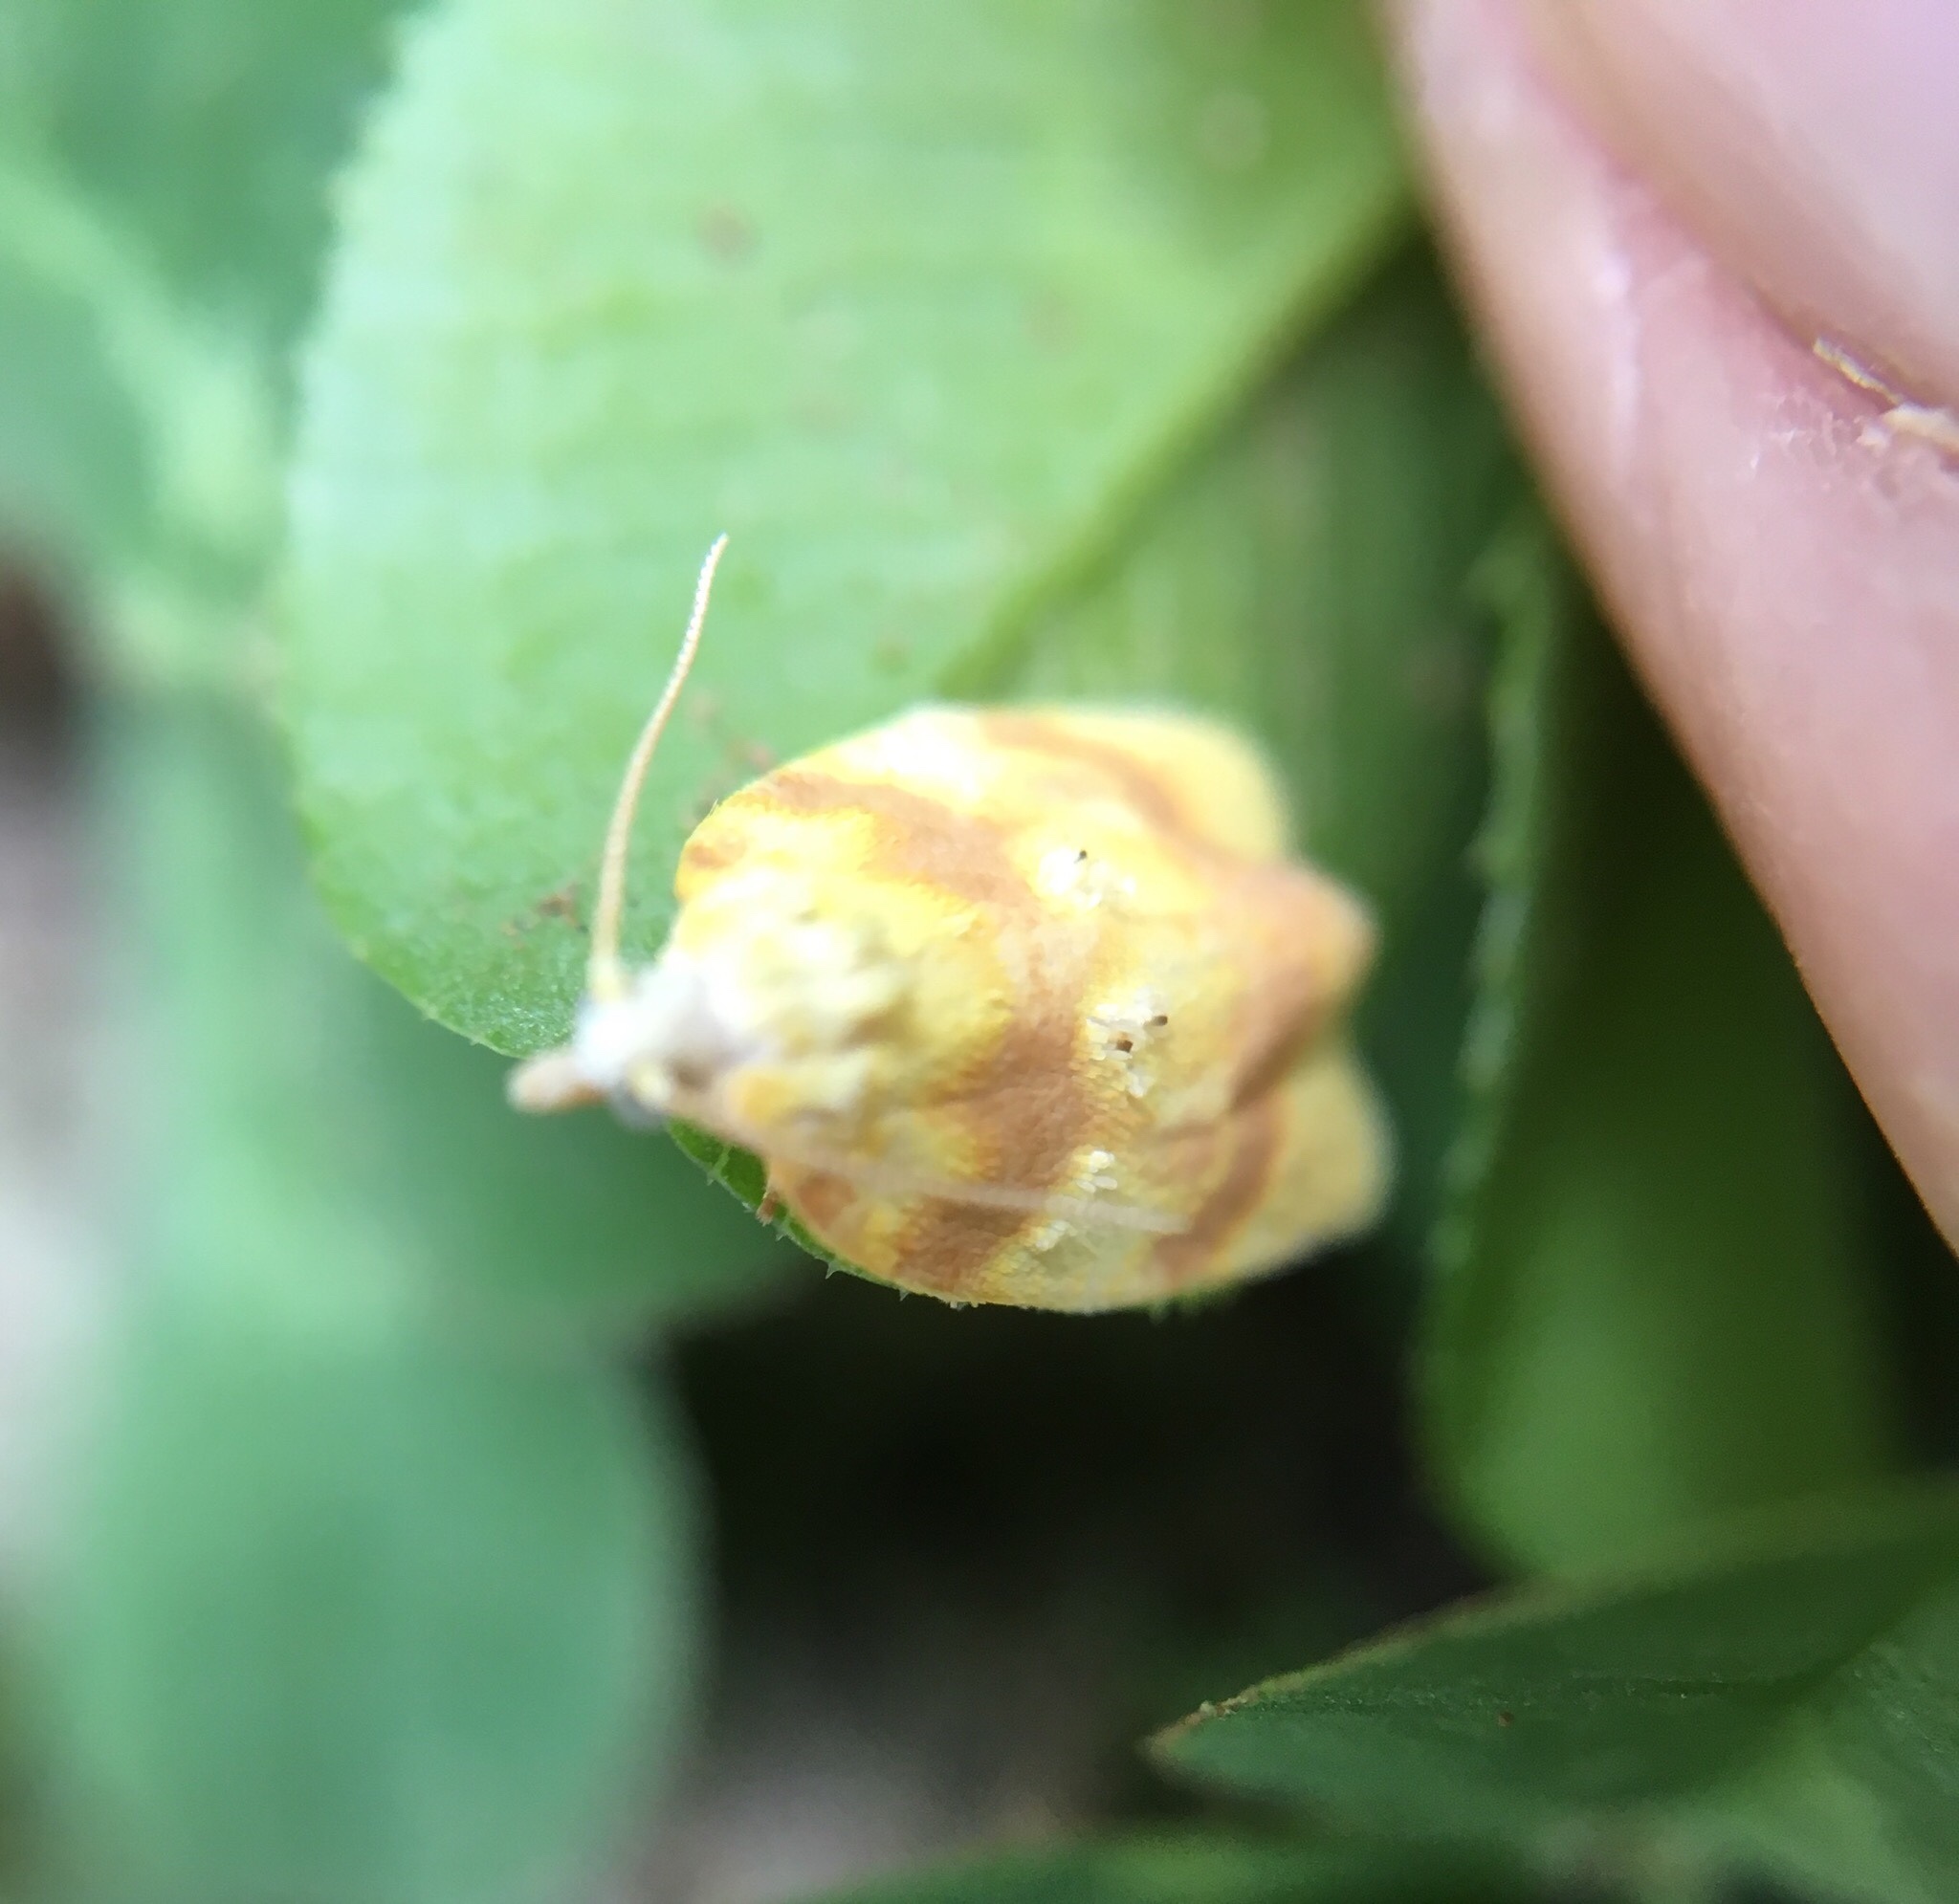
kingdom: Animalia
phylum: Arthropoda
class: Insecta
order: Lepidoptera
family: Tortricidae
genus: Acleris
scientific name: Acleris semipurpurana
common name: Oak leaftier moth
